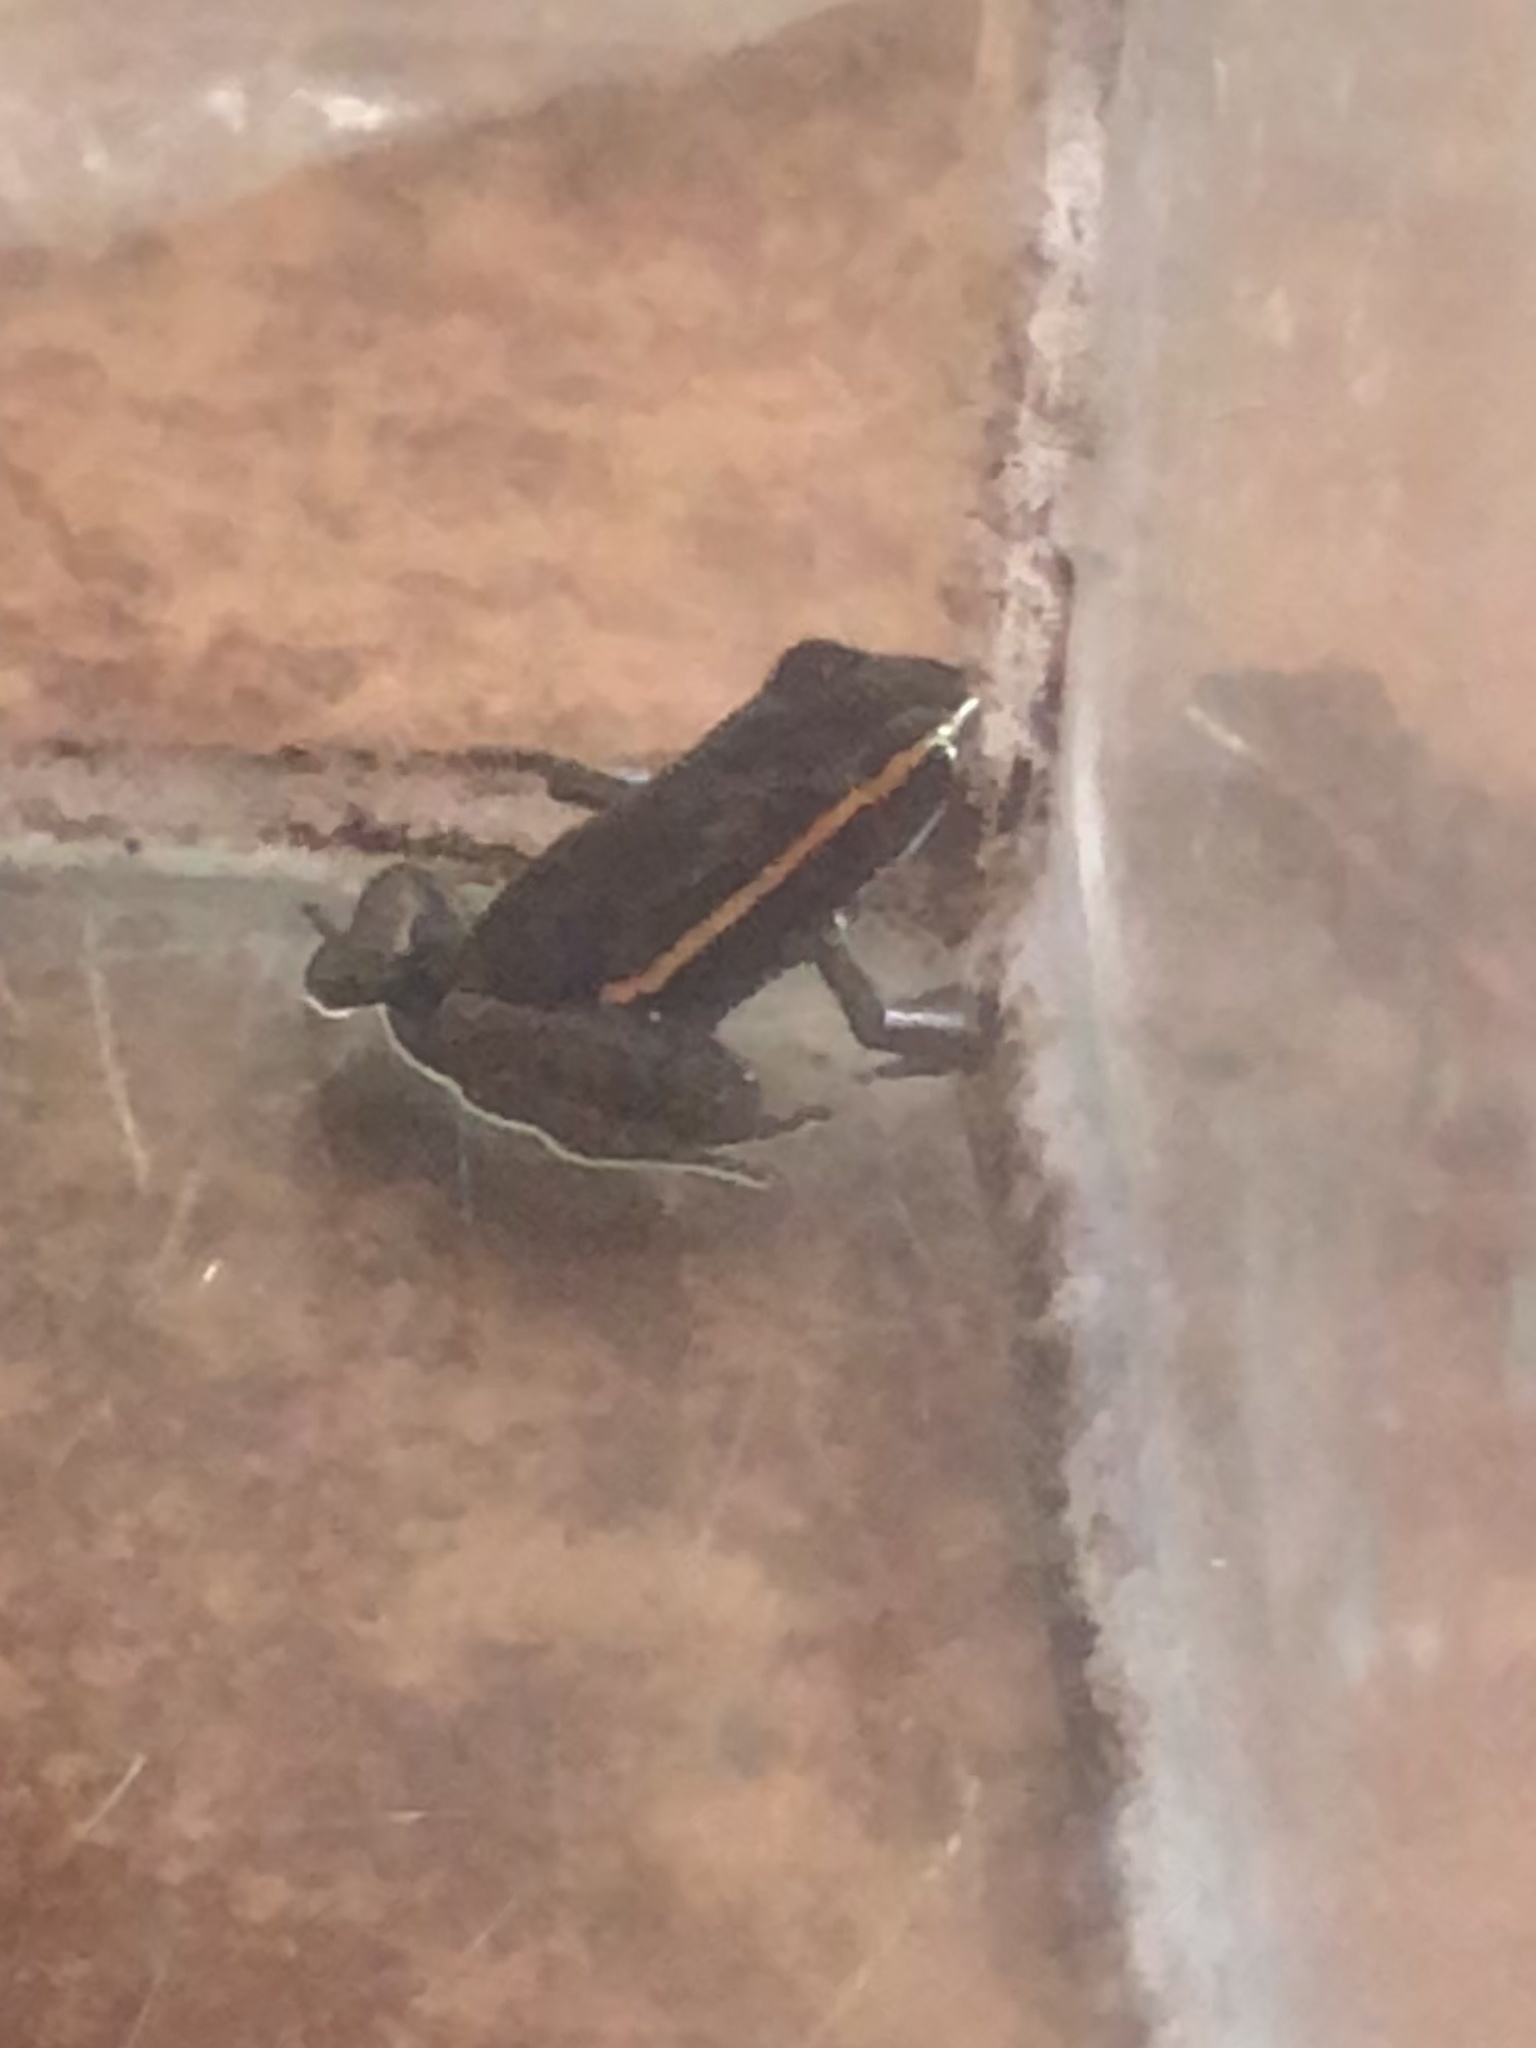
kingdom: Animalia
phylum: Chordata
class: Amphibia
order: Anura
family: Dendrobatidae
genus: Ameerega
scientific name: Ameerega shihuemoy
